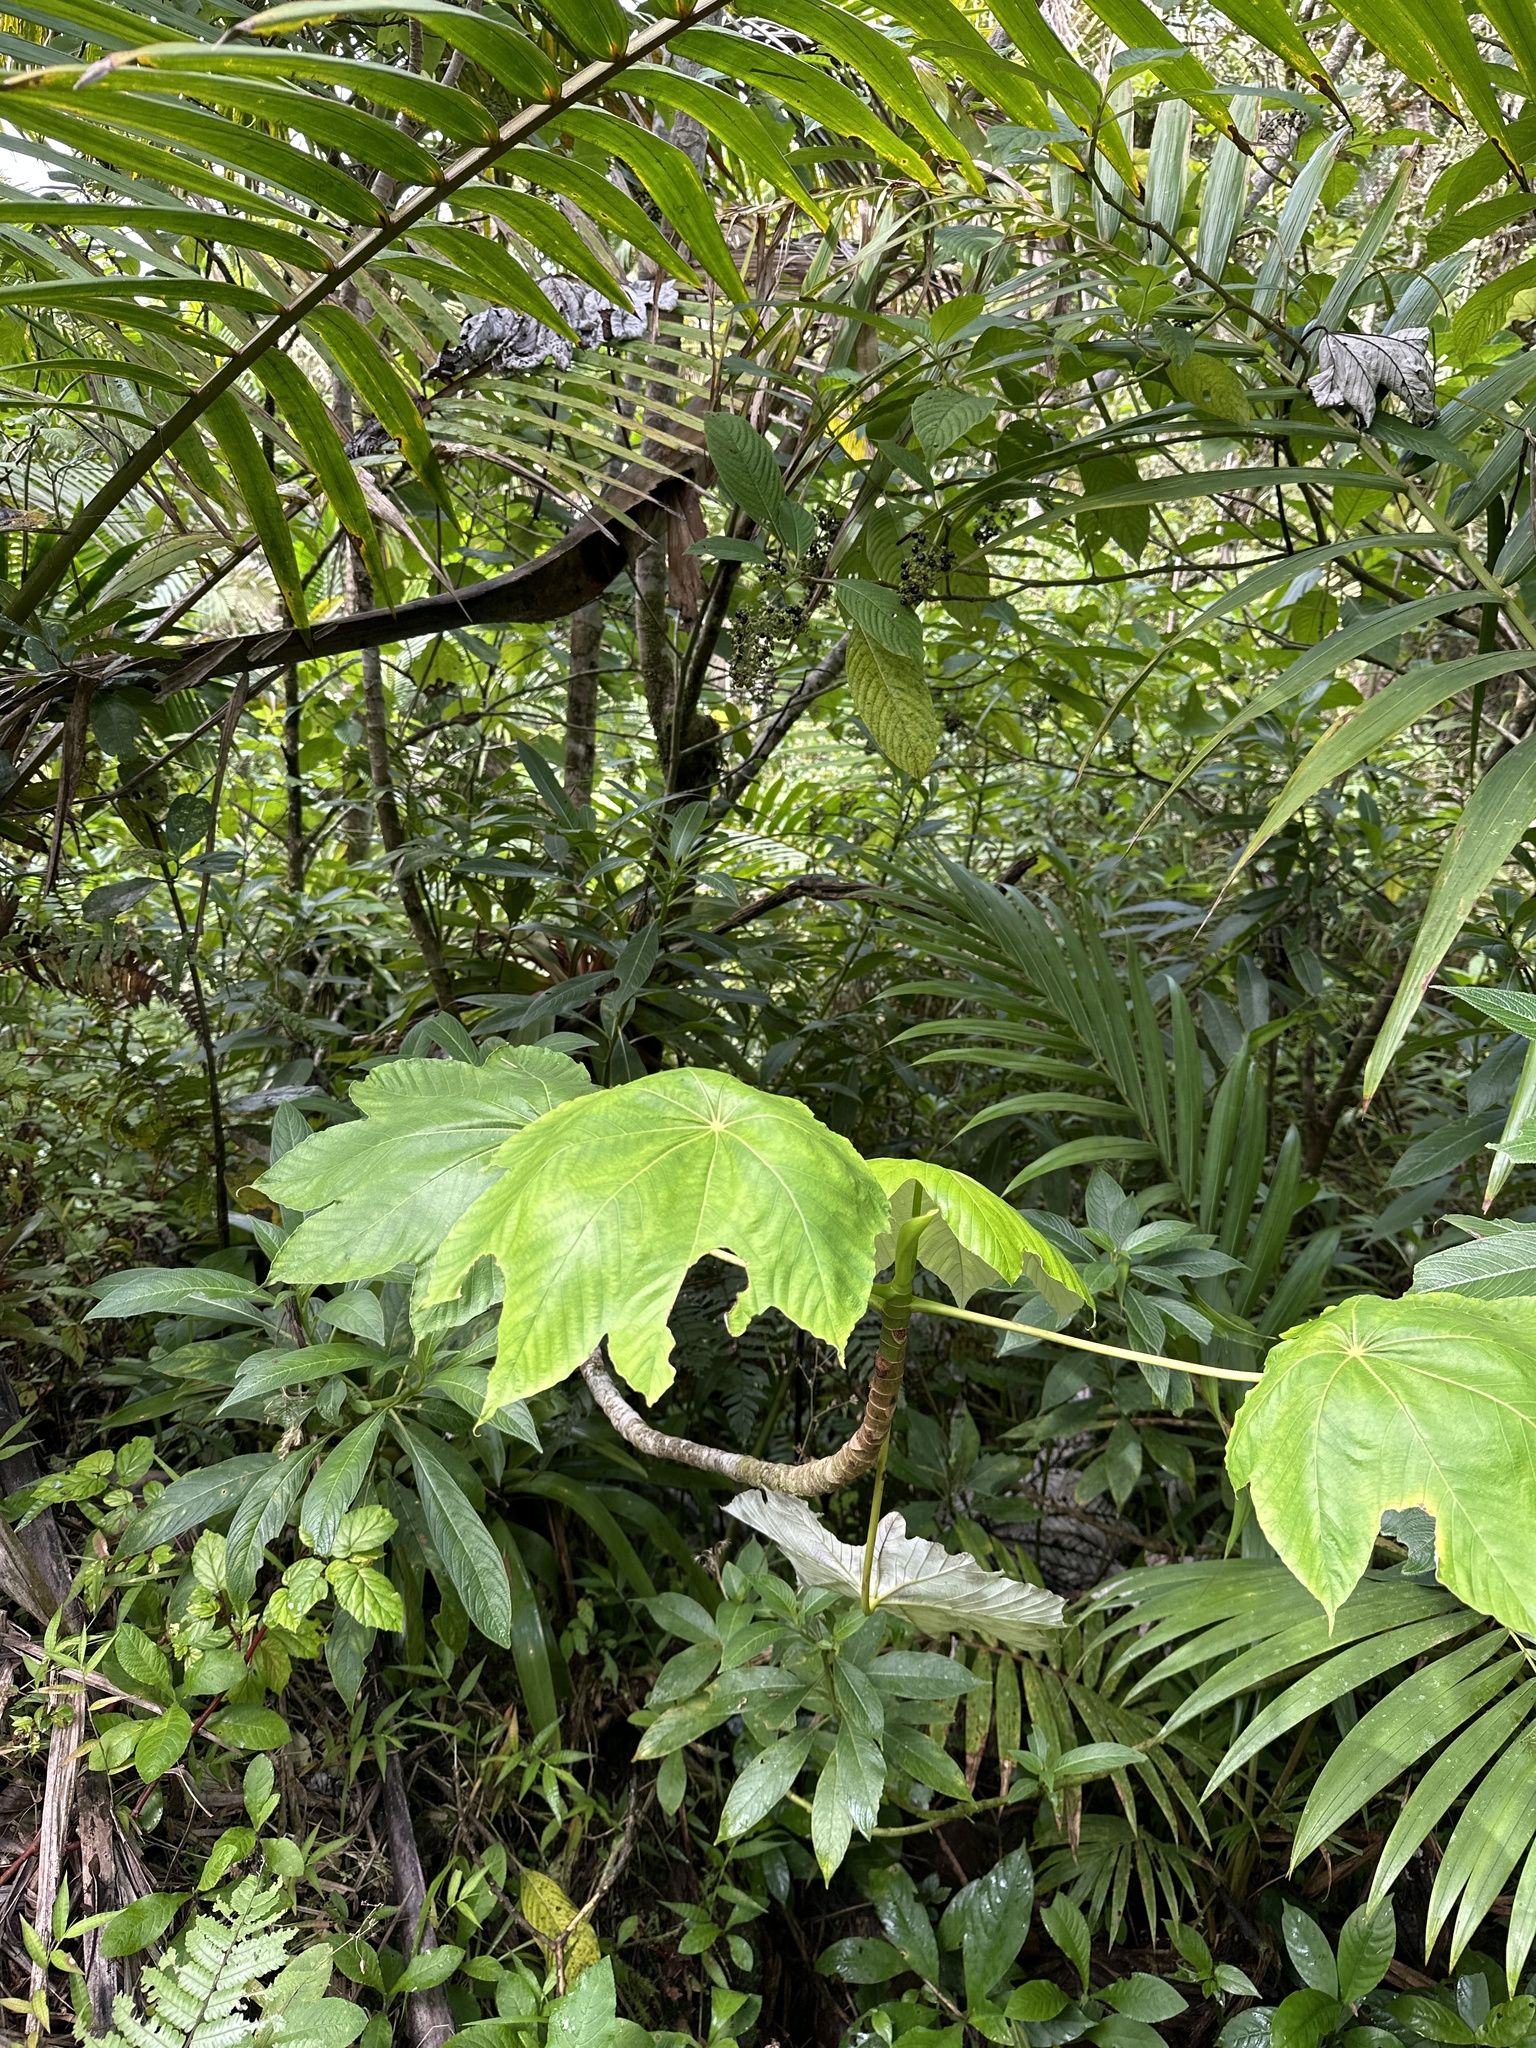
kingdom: Plantae
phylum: Tracheophyta
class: Magnoliopsida
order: Rosales
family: Urticaceae
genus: Cecropia
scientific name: Cecropia schreberiana
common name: Trumpet tree
